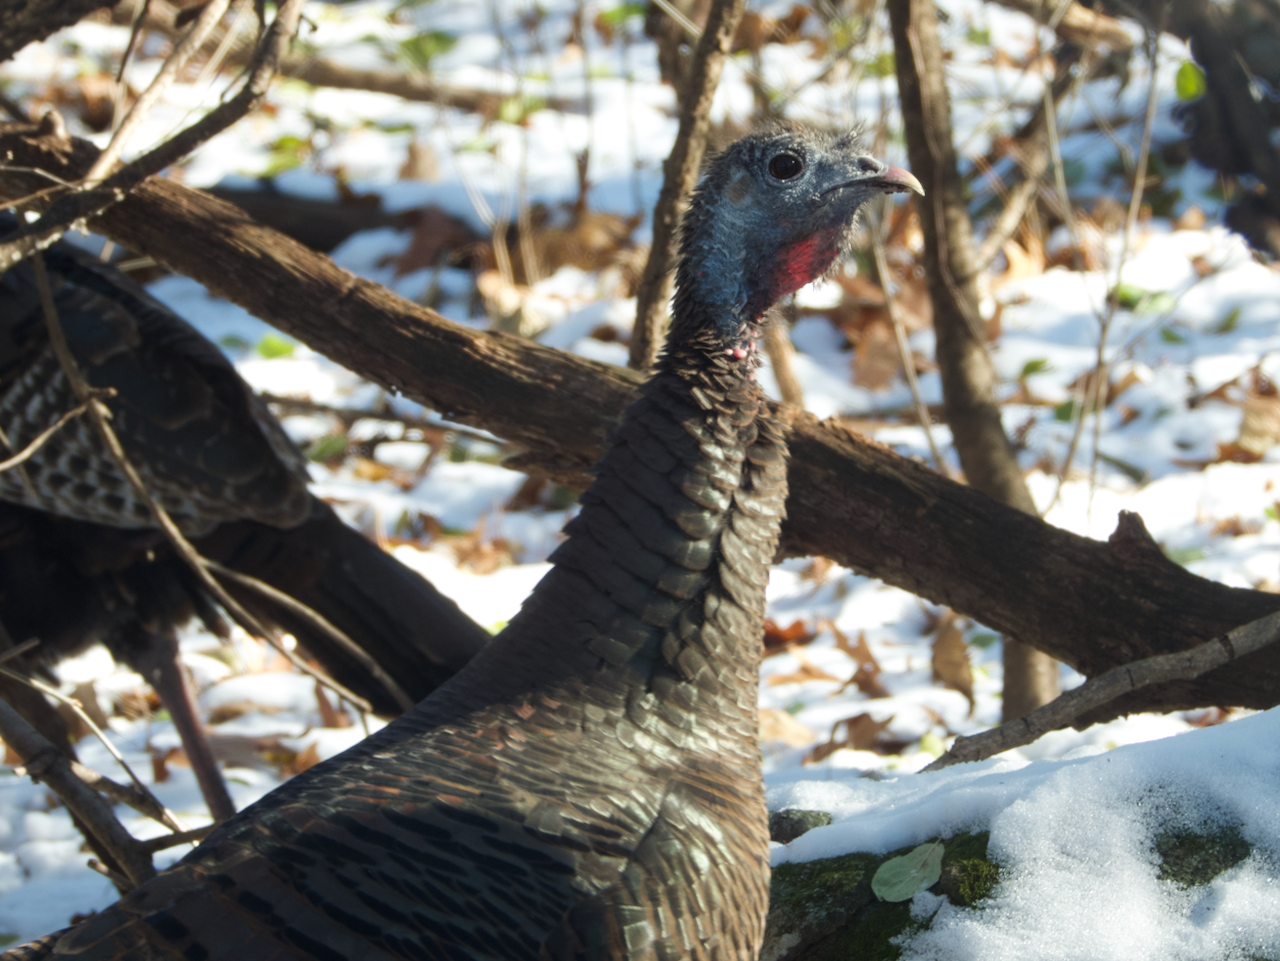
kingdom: Animalia
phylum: Chordata
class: Aves
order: Galliformes
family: Phasianidae
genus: Meleagris
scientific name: Meleagris gallopavo
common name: Wild turkey
